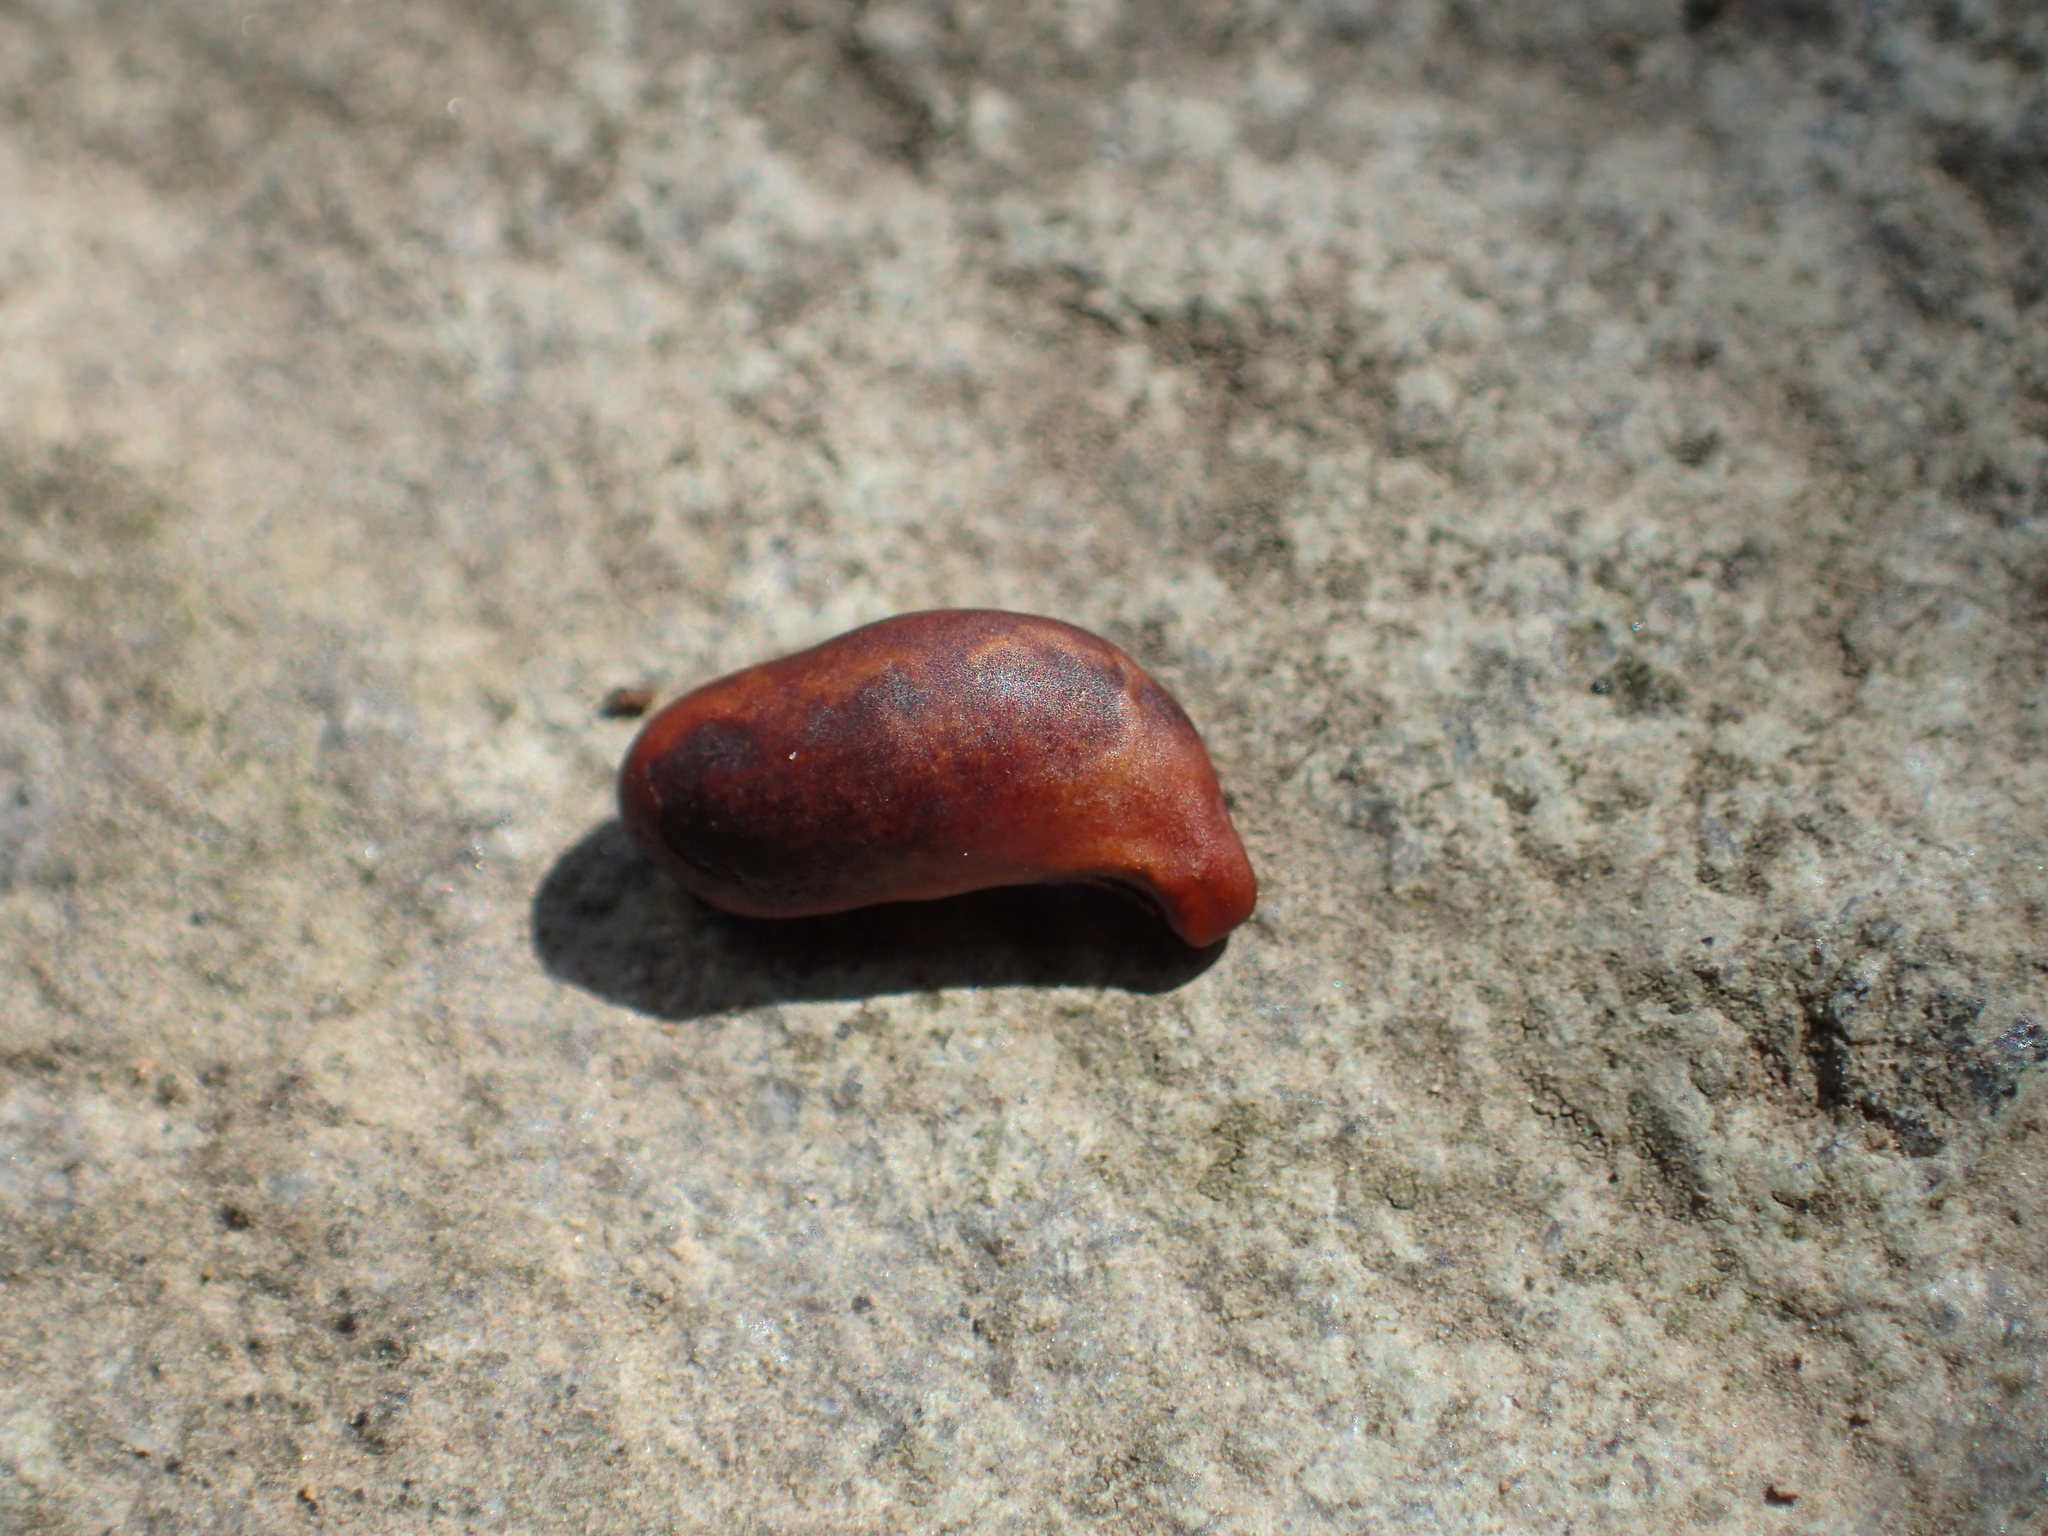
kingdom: Plantae
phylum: Tracheophyta
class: Magnoliopsida
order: Fabales
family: Fabaceae
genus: Maackia
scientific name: Maackia taiwanensis
